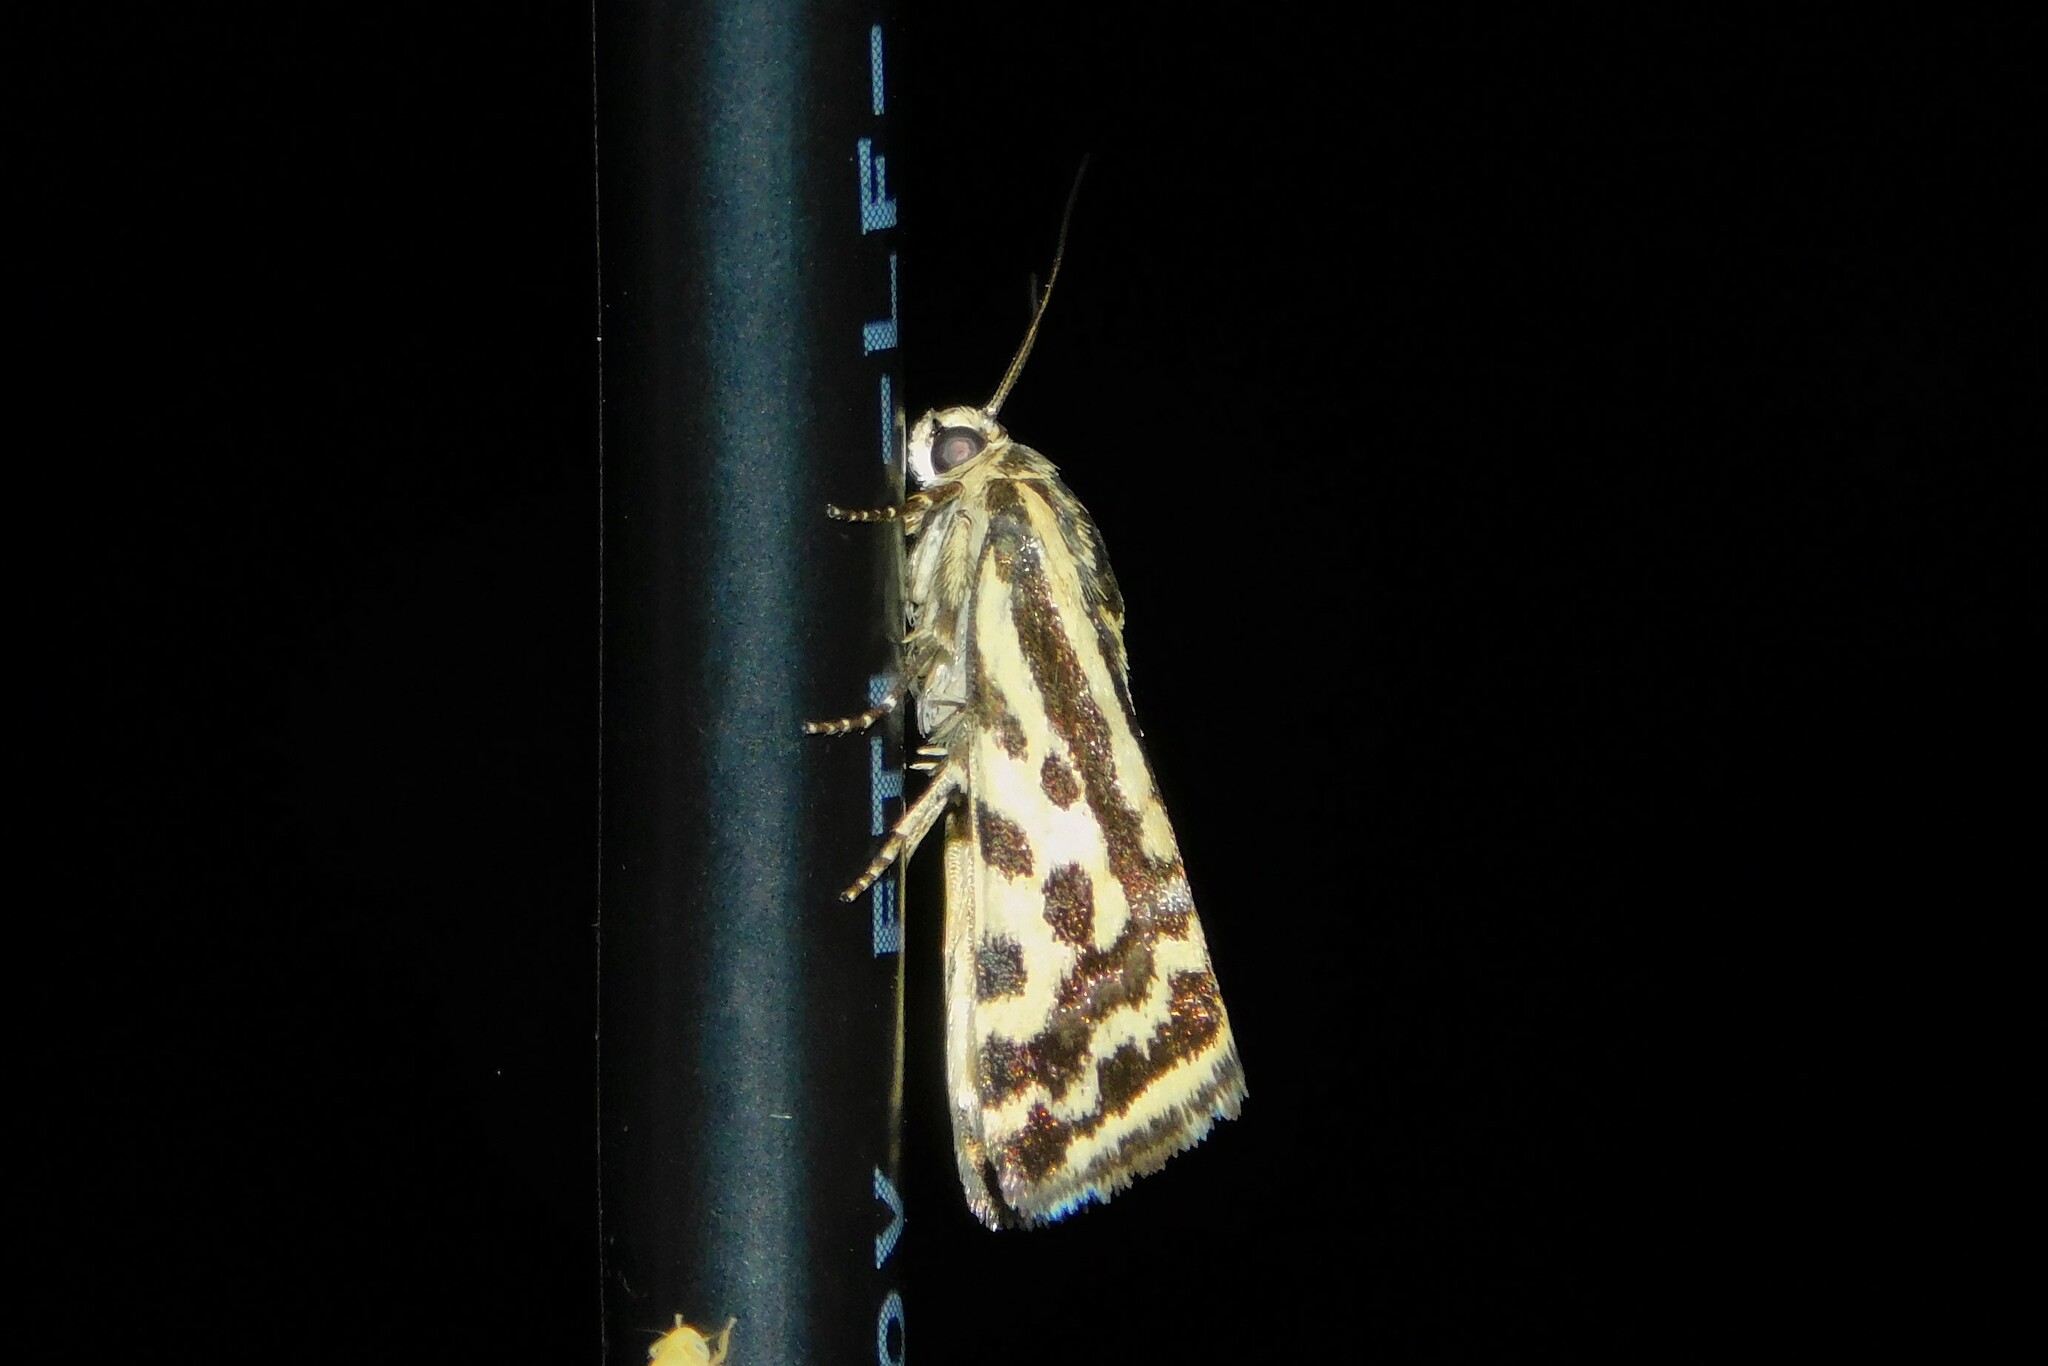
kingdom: Animalia
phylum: Arthropoda
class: Insecta
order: Lepidoptera
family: Noctuidae
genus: Acontia
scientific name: Acontia trabealis
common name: Spotted sulphur
